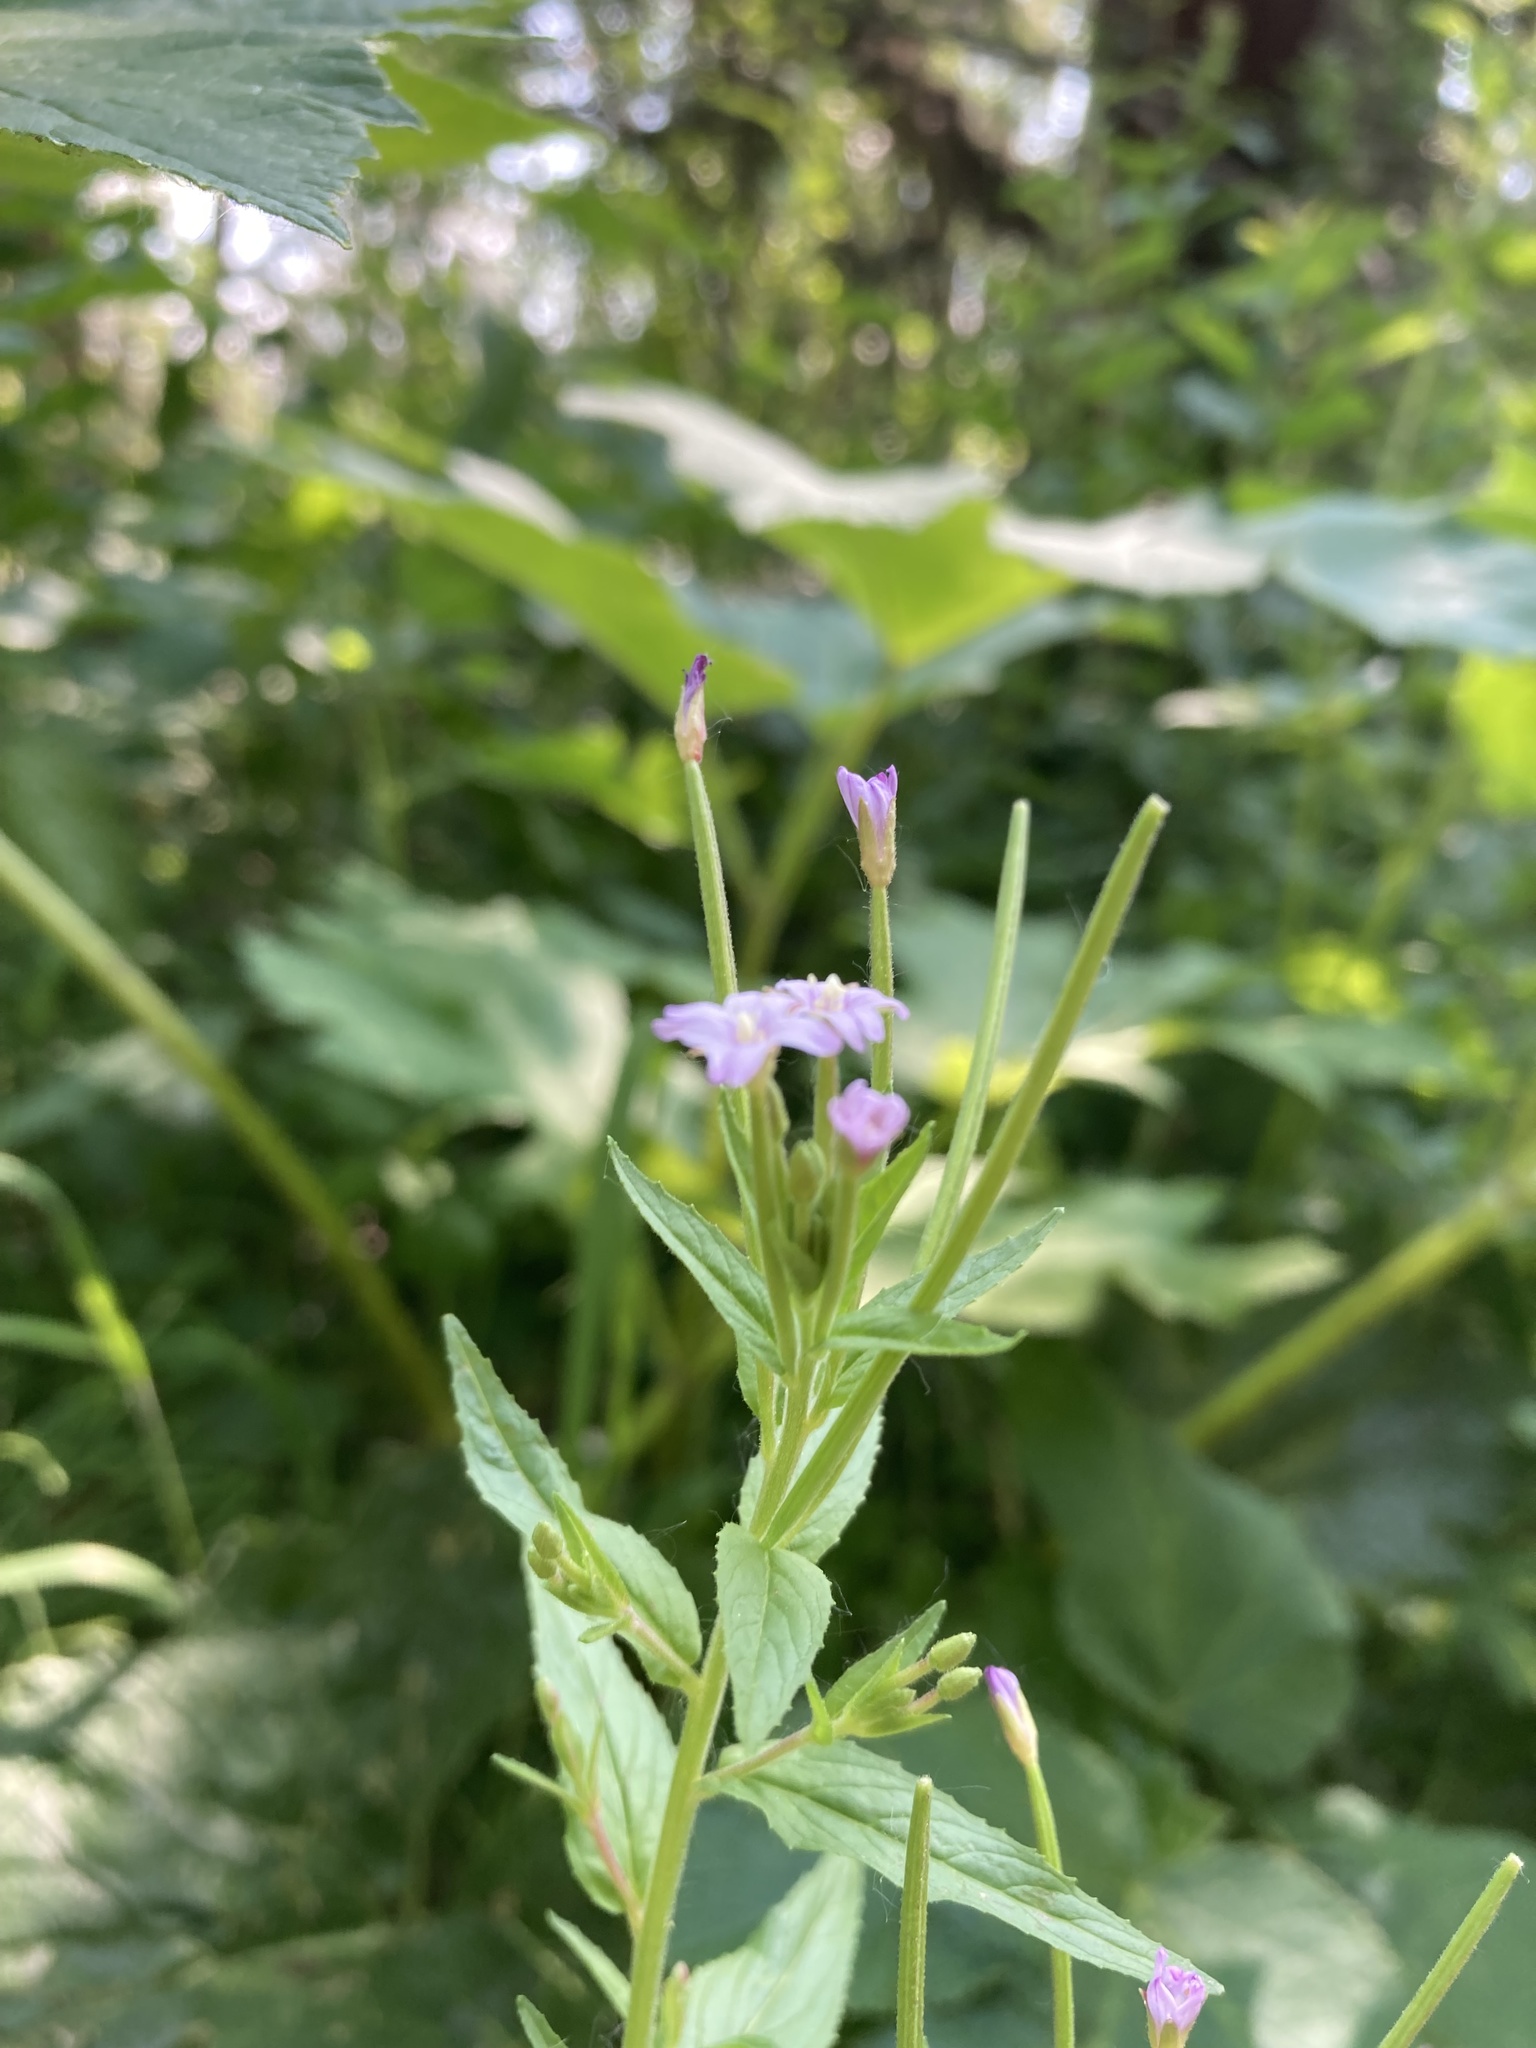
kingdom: Plantae
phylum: Tracheophyta
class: Magnoliopsida
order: Myrtales
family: Onagraceae
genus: Epilobium
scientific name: Epilobium ciliatum
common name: American willowherb
